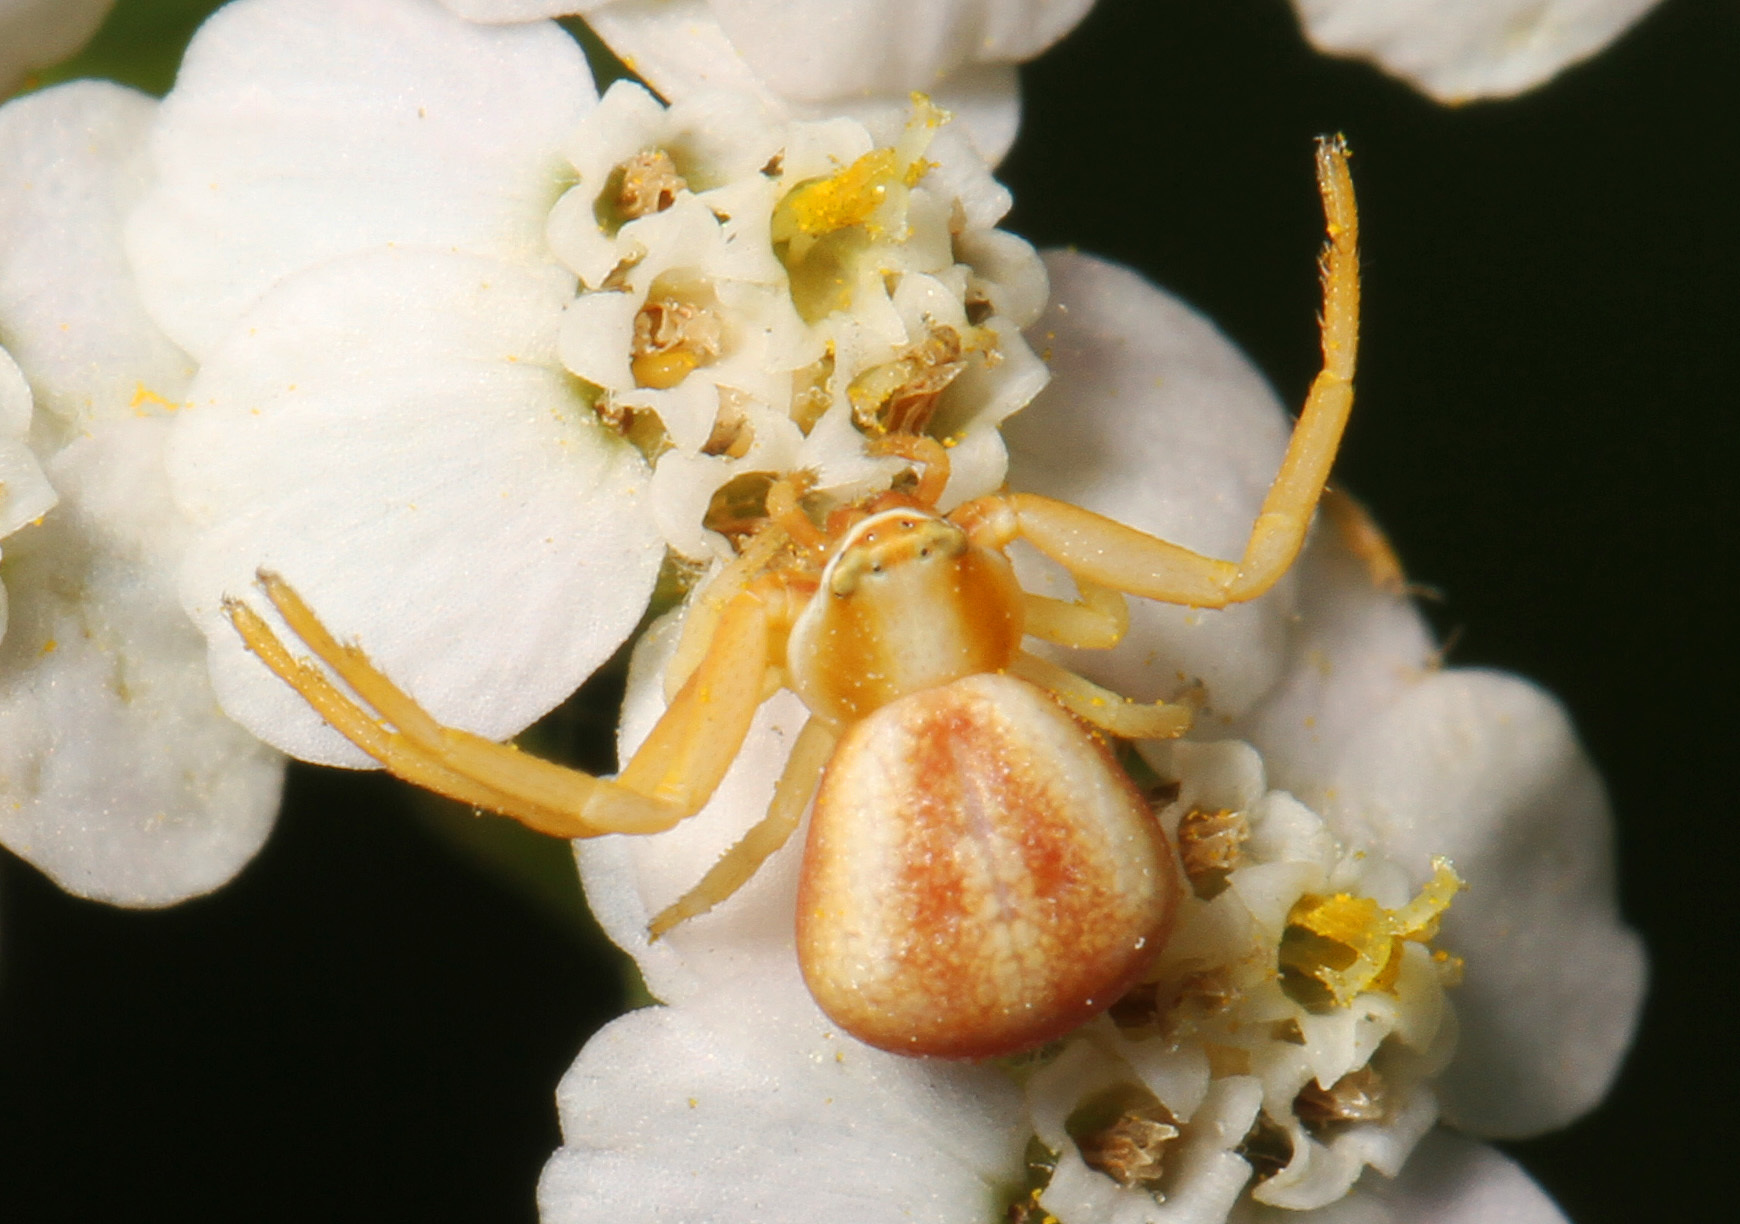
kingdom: Animalia
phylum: Arthropoda
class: Arachnida
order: Araneae
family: Thomisidae
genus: Misumenoides
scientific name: Misumenoides formosipes
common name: White-banded crab spider
